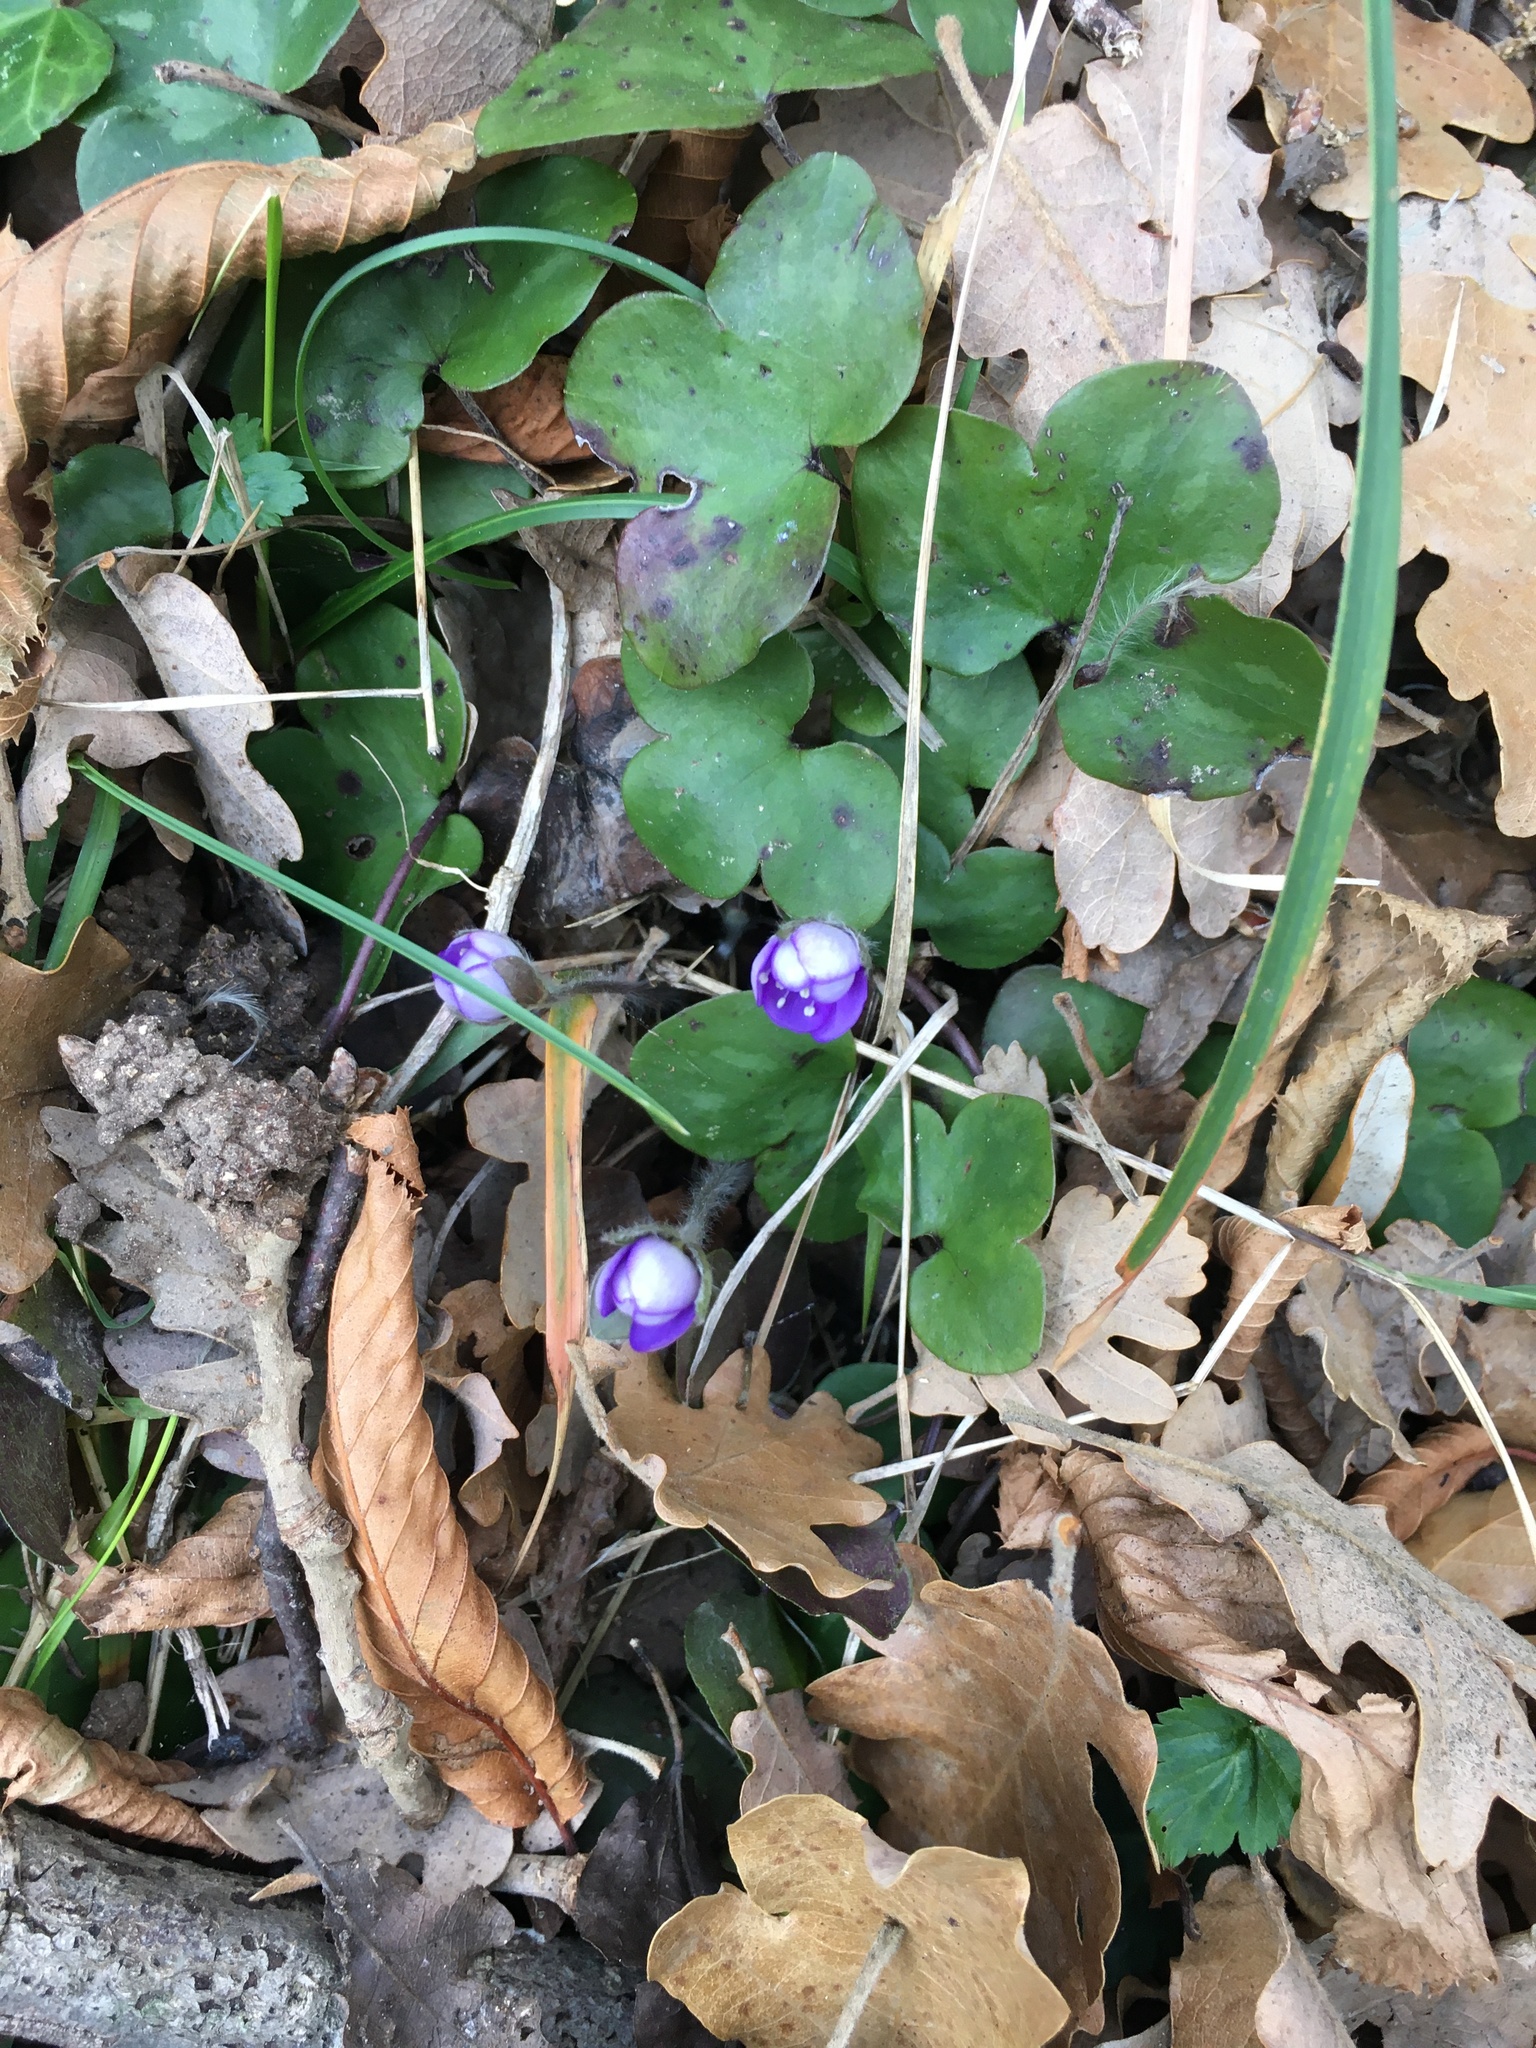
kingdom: Plantae
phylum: Tracheophyta
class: Magnoliopsida
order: Ranunculales
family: Ranunculaceae
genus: Hepatica
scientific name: Hepatica nobilis
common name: Liverleaf
